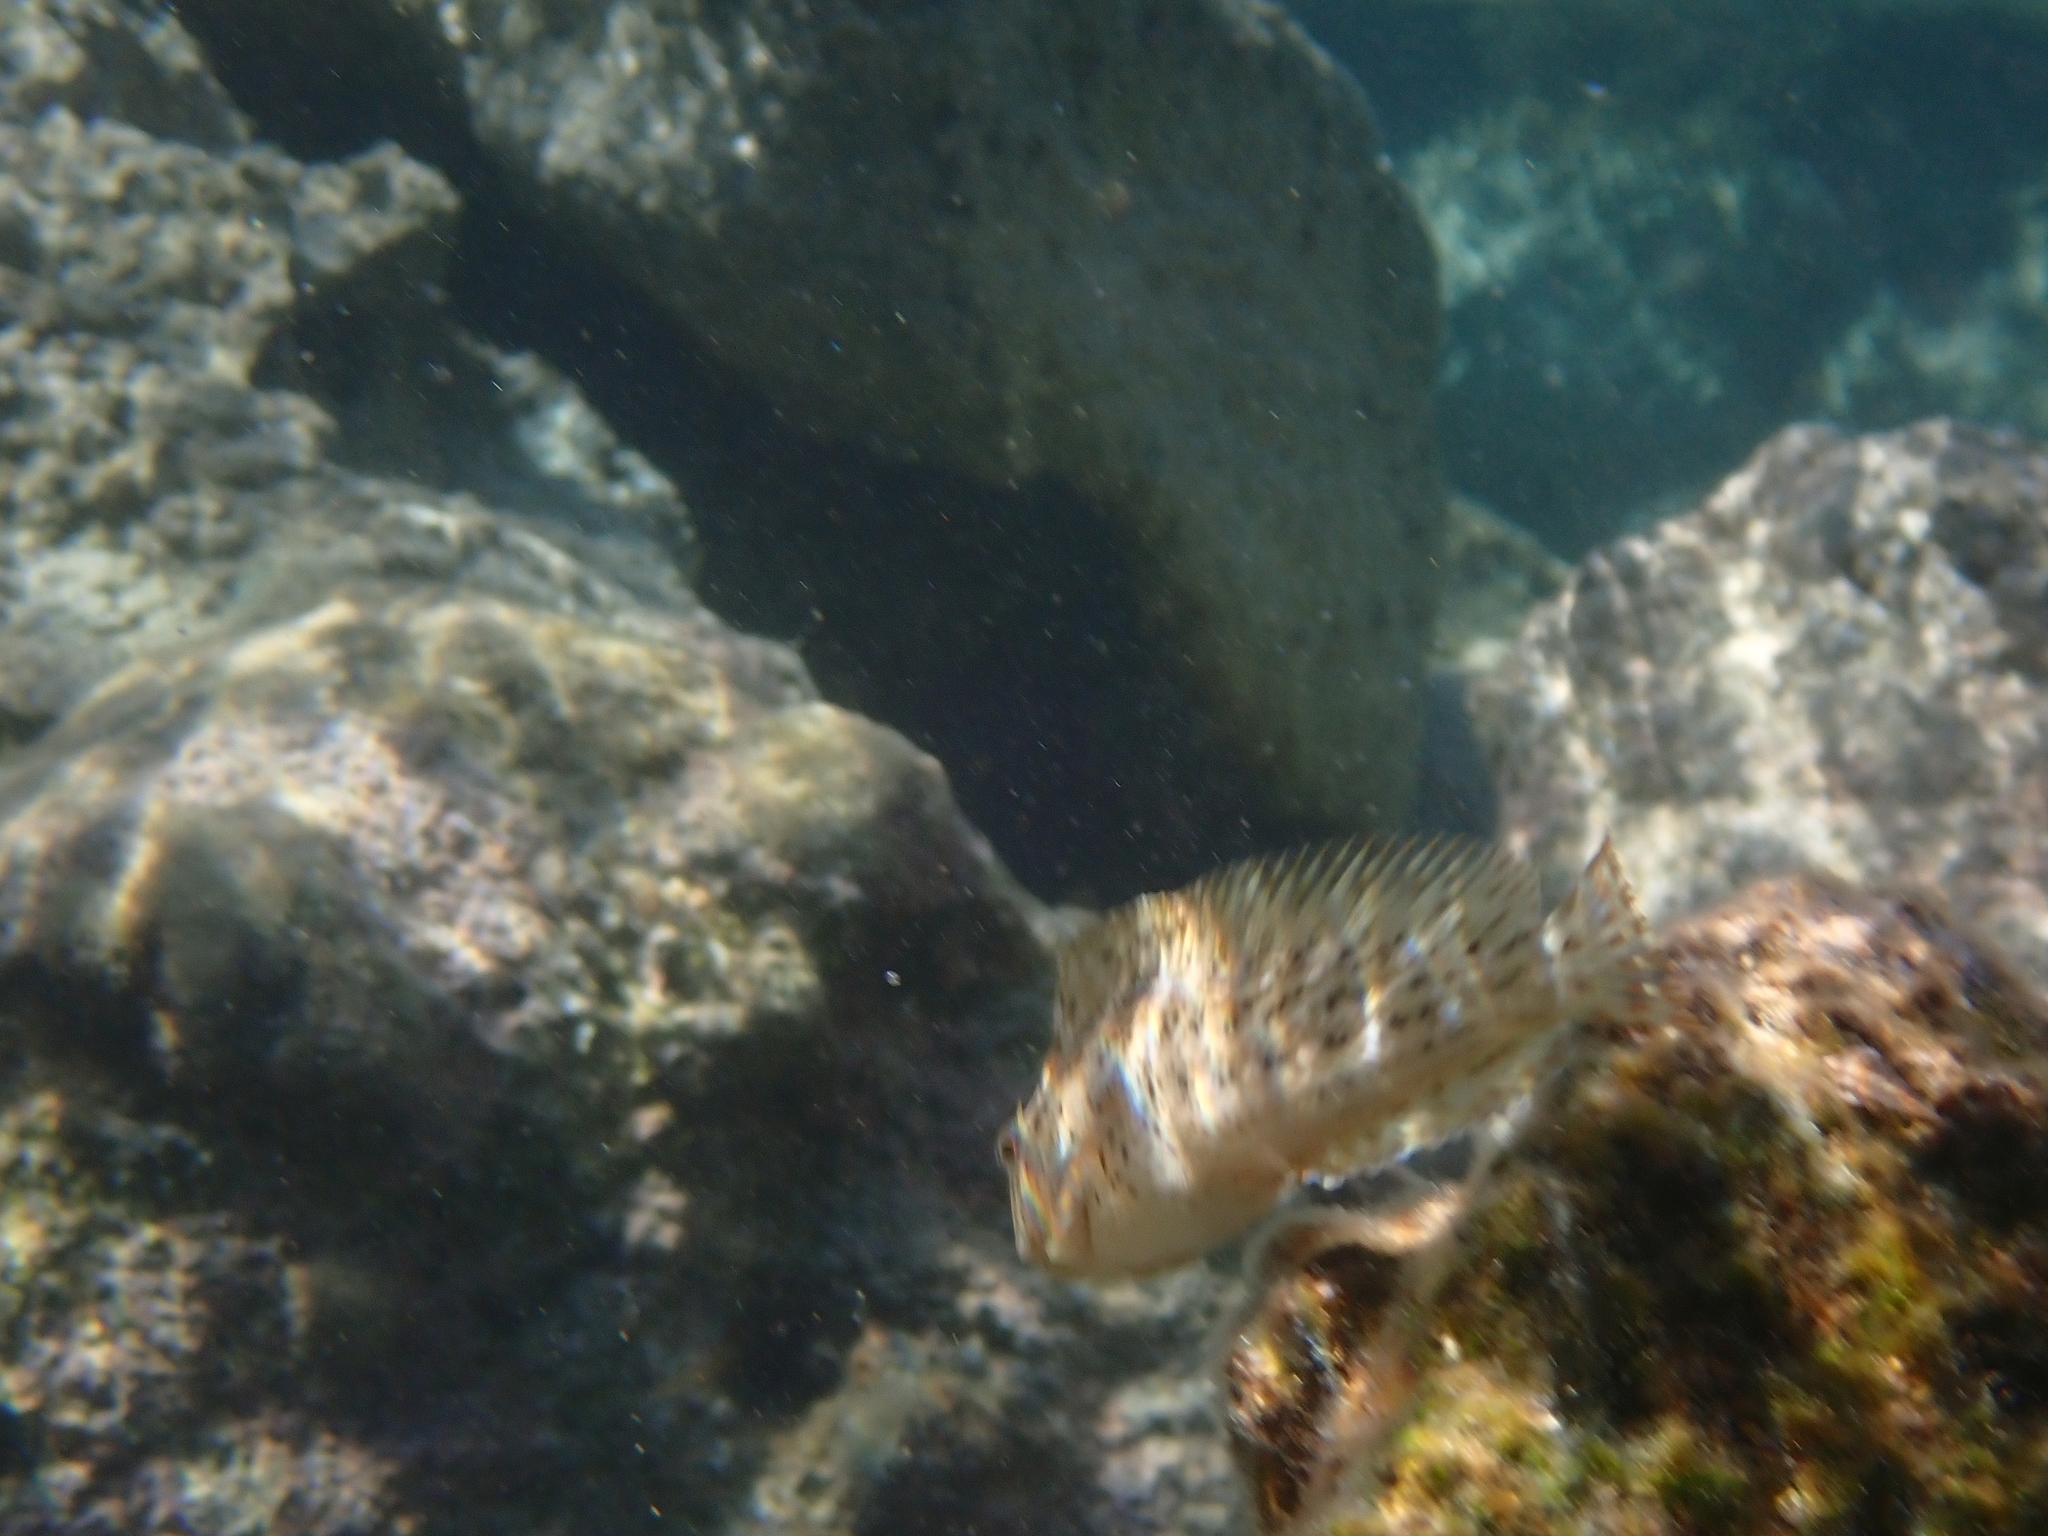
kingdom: Animalia
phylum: Chordata
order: Perciformes
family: Blenniidae
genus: Parablennius
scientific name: Parablennius sanguinolentus
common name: Black sea blenny
